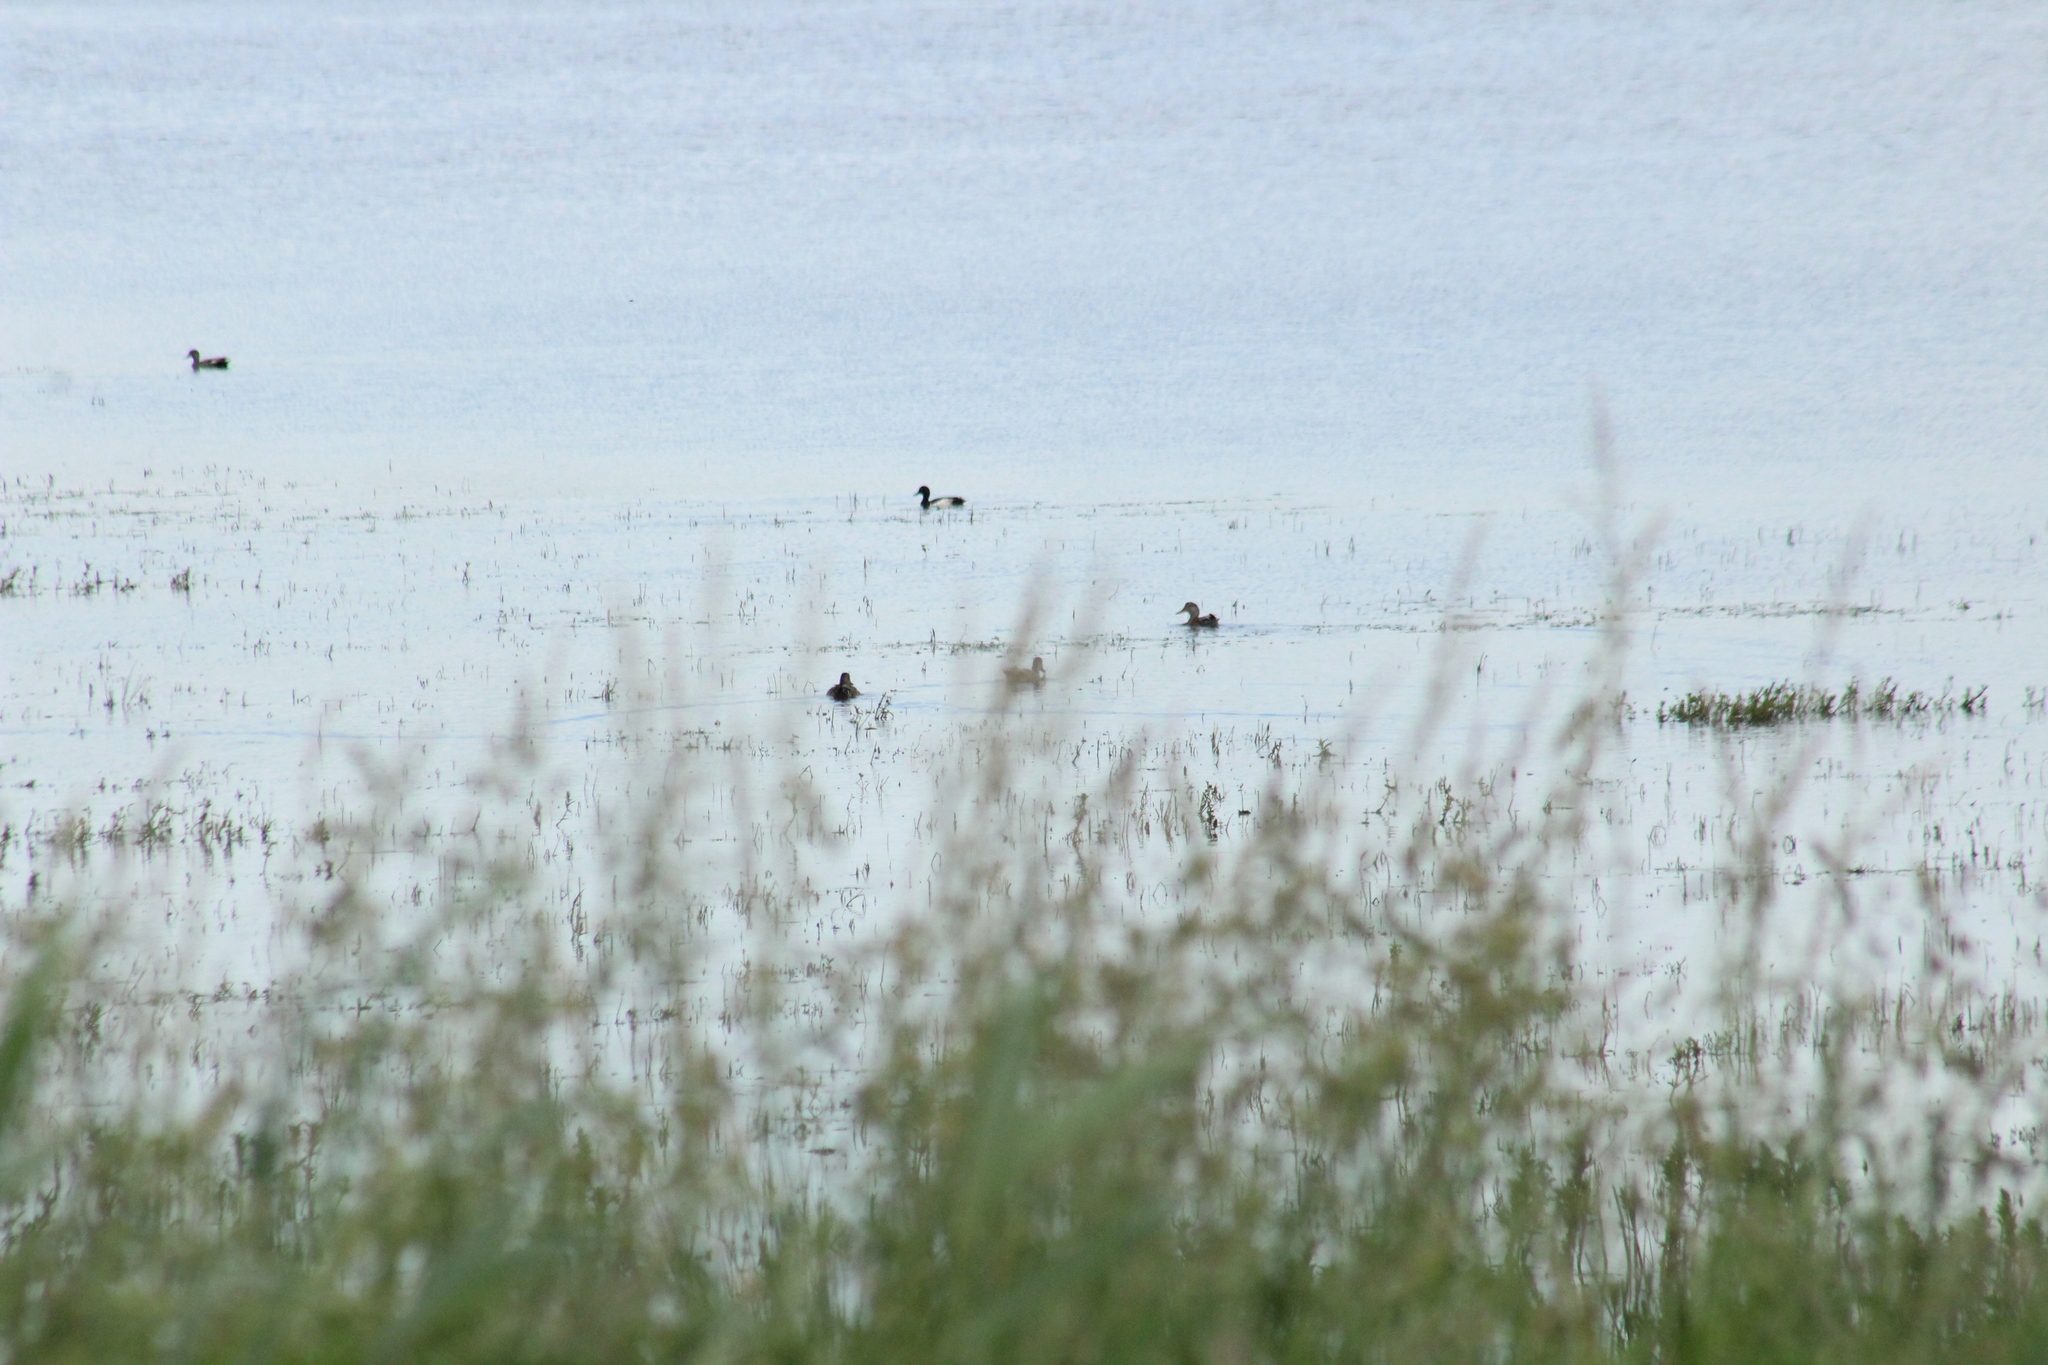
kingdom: Animalia
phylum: Chordata
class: Aves
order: Anseriformes
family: Anatidae
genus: Aythya
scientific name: Aythya fuligula
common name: Tufted duck
